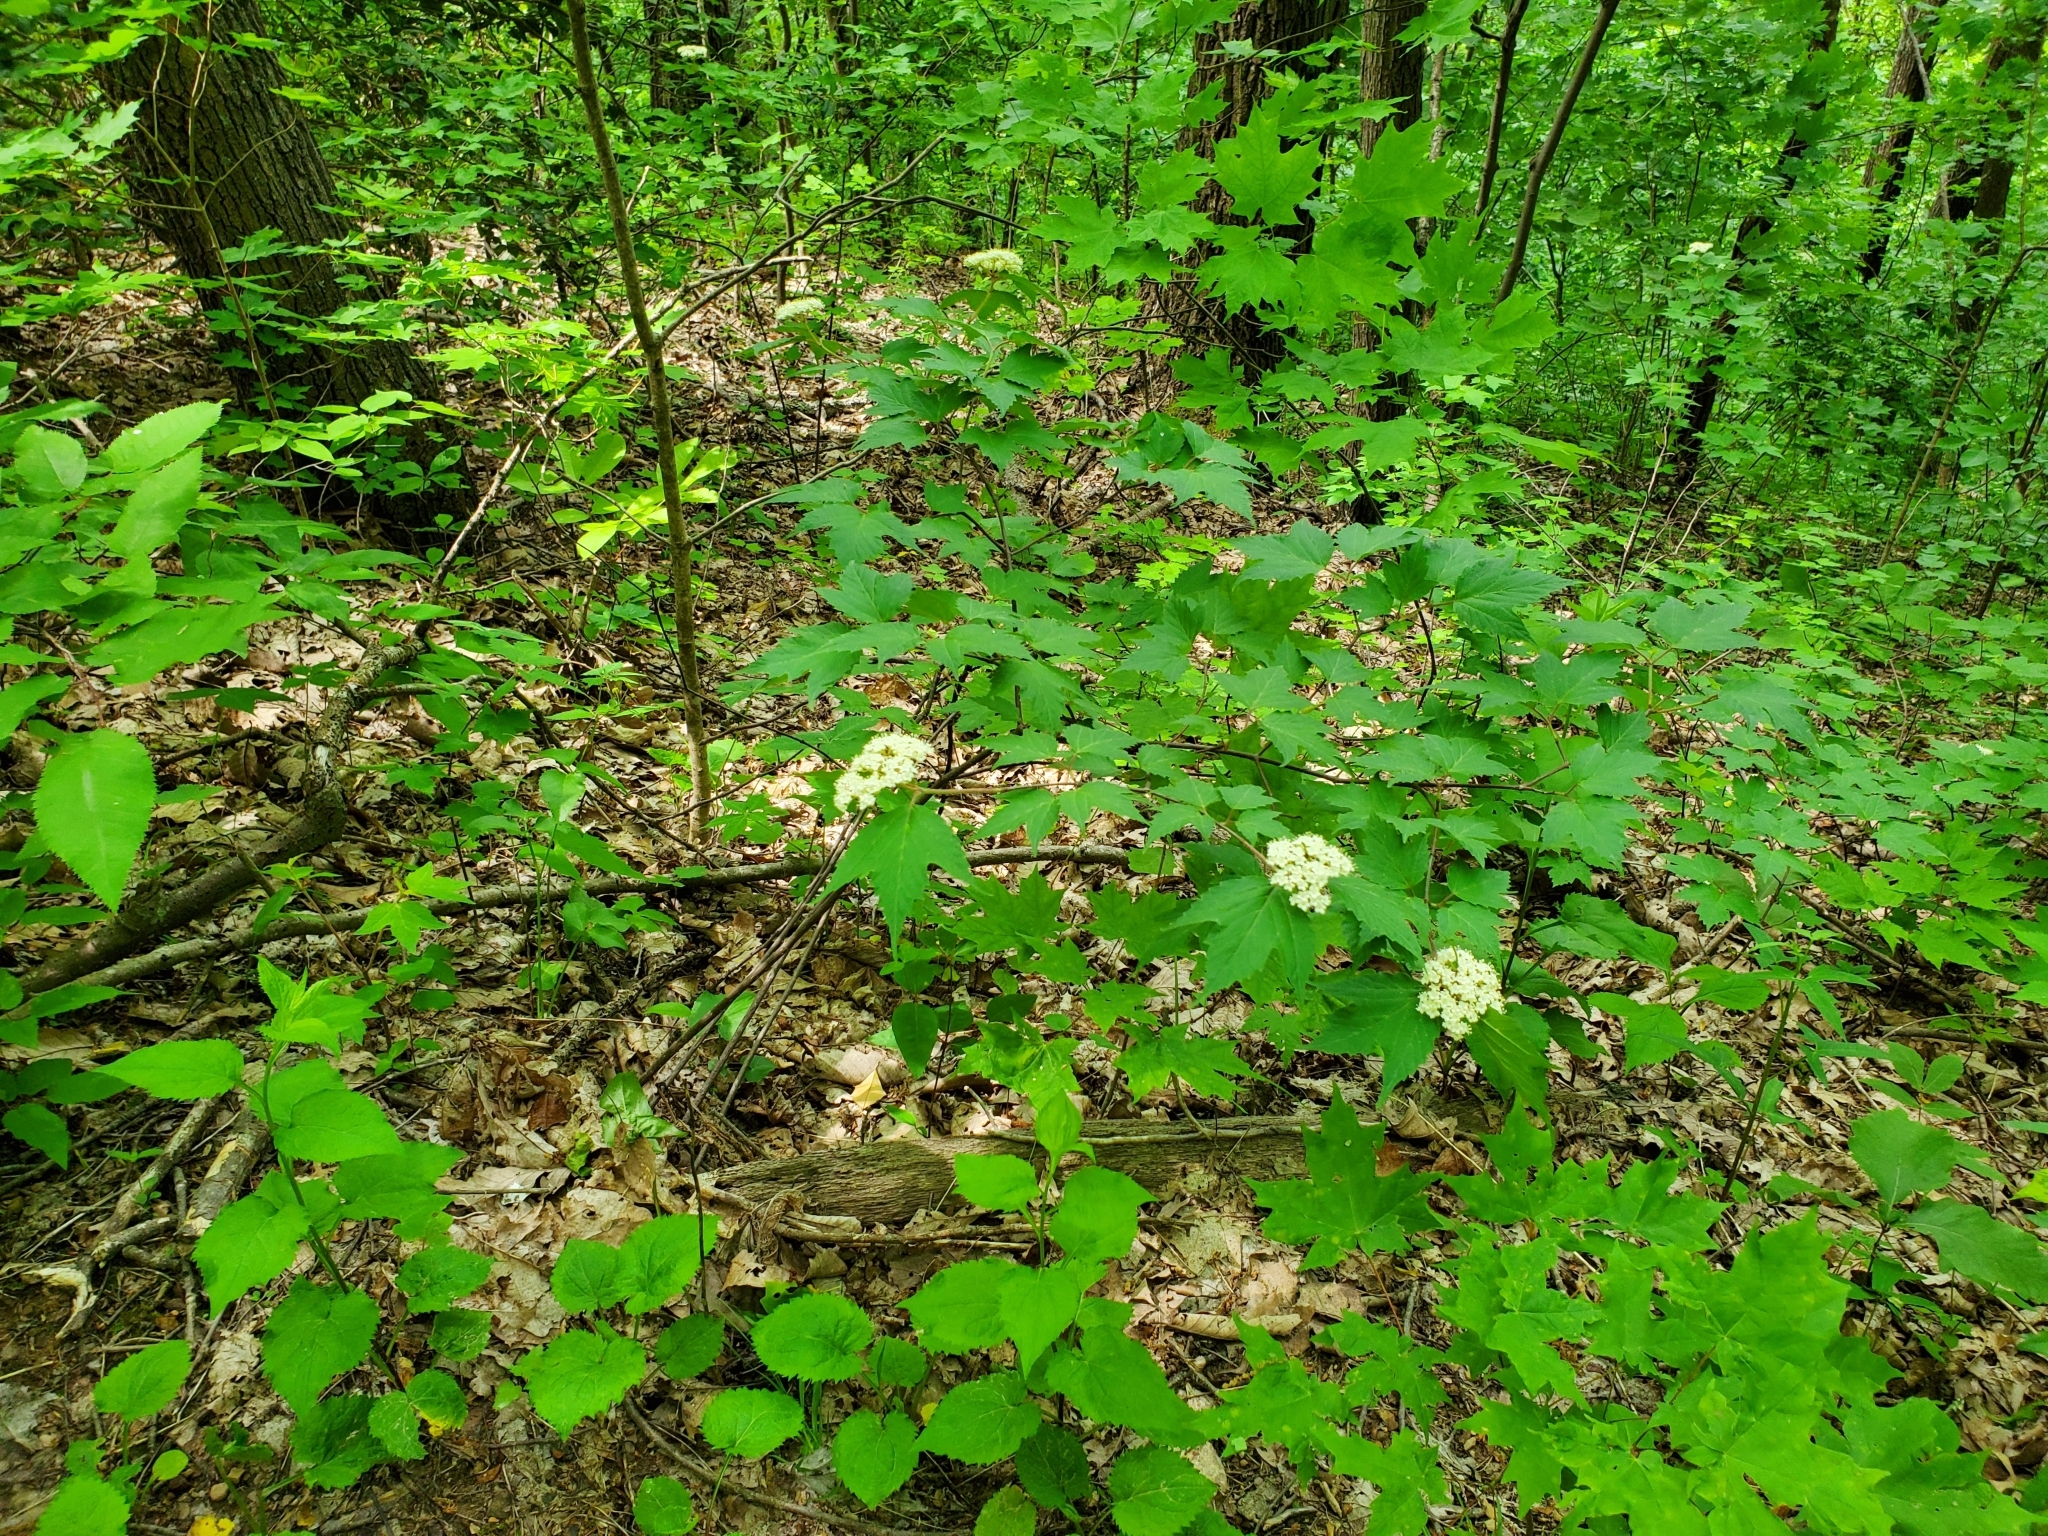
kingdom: Plantae
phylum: Tracheophyta
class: Magnoliopsida
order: Dipsacales
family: Viburnaceae
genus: Viburnum
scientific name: Viburnum acerifolium
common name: Dockmackie
